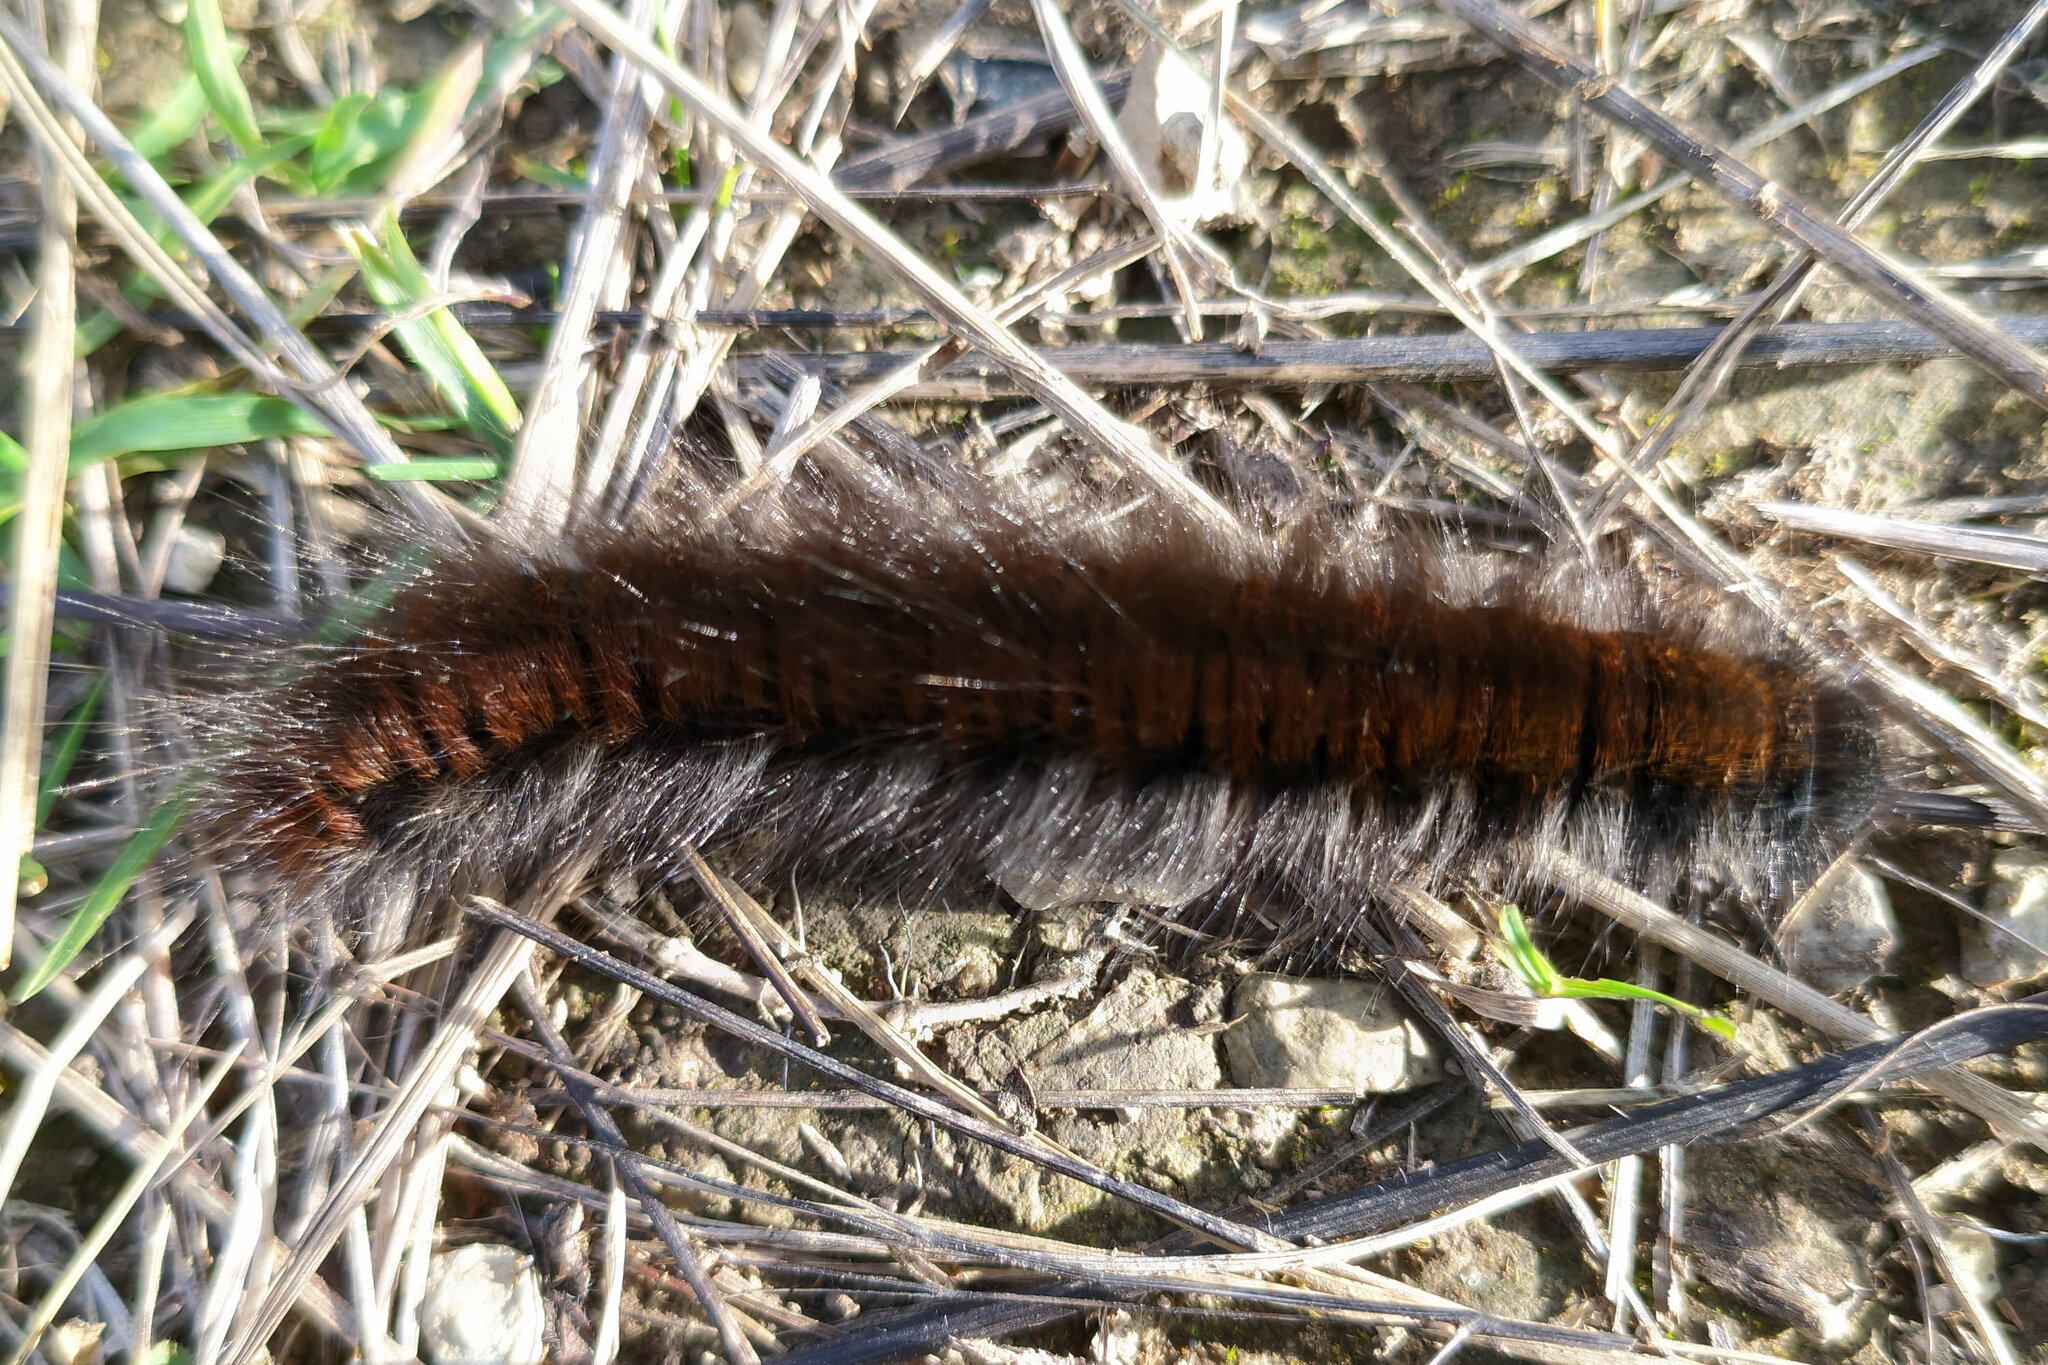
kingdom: Animalia
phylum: Arthropoda
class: Insecta
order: Lepidoptera
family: Lasiocampidae
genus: Macrothylacia
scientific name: Macrothylacia rubi
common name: Fox moth
